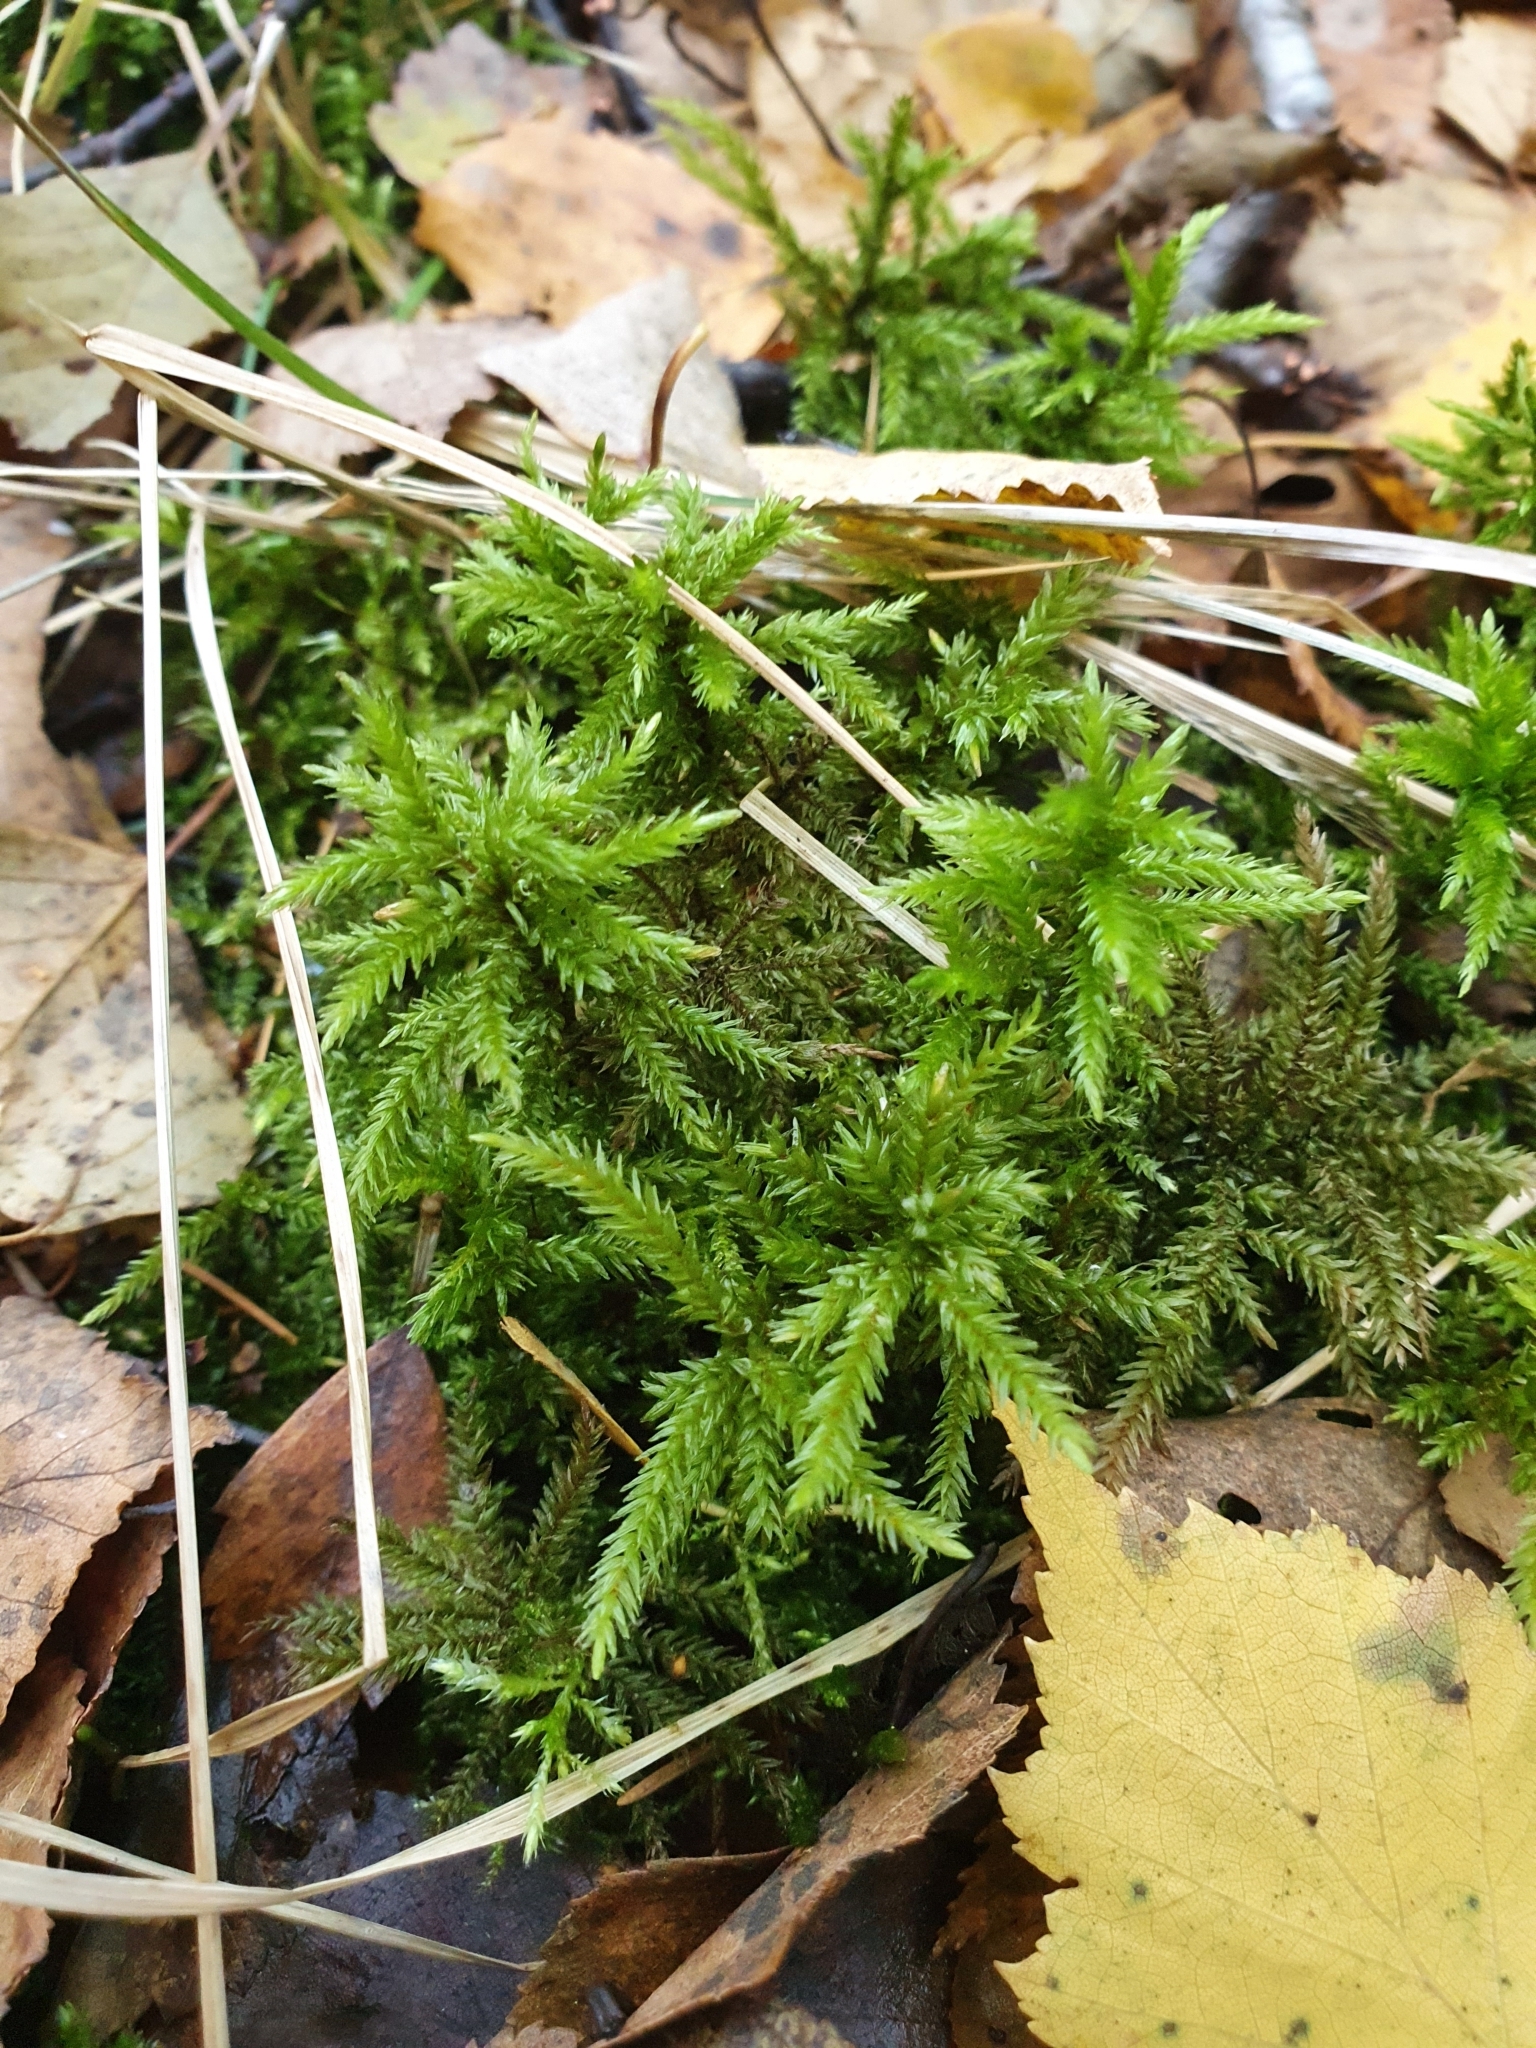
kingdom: Plantae
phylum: Bryophyta
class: Bryopsida
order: Hypnales
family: Climaciaceae
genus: Climacium
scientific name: Climacium dendroides
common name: Northern tree moss
